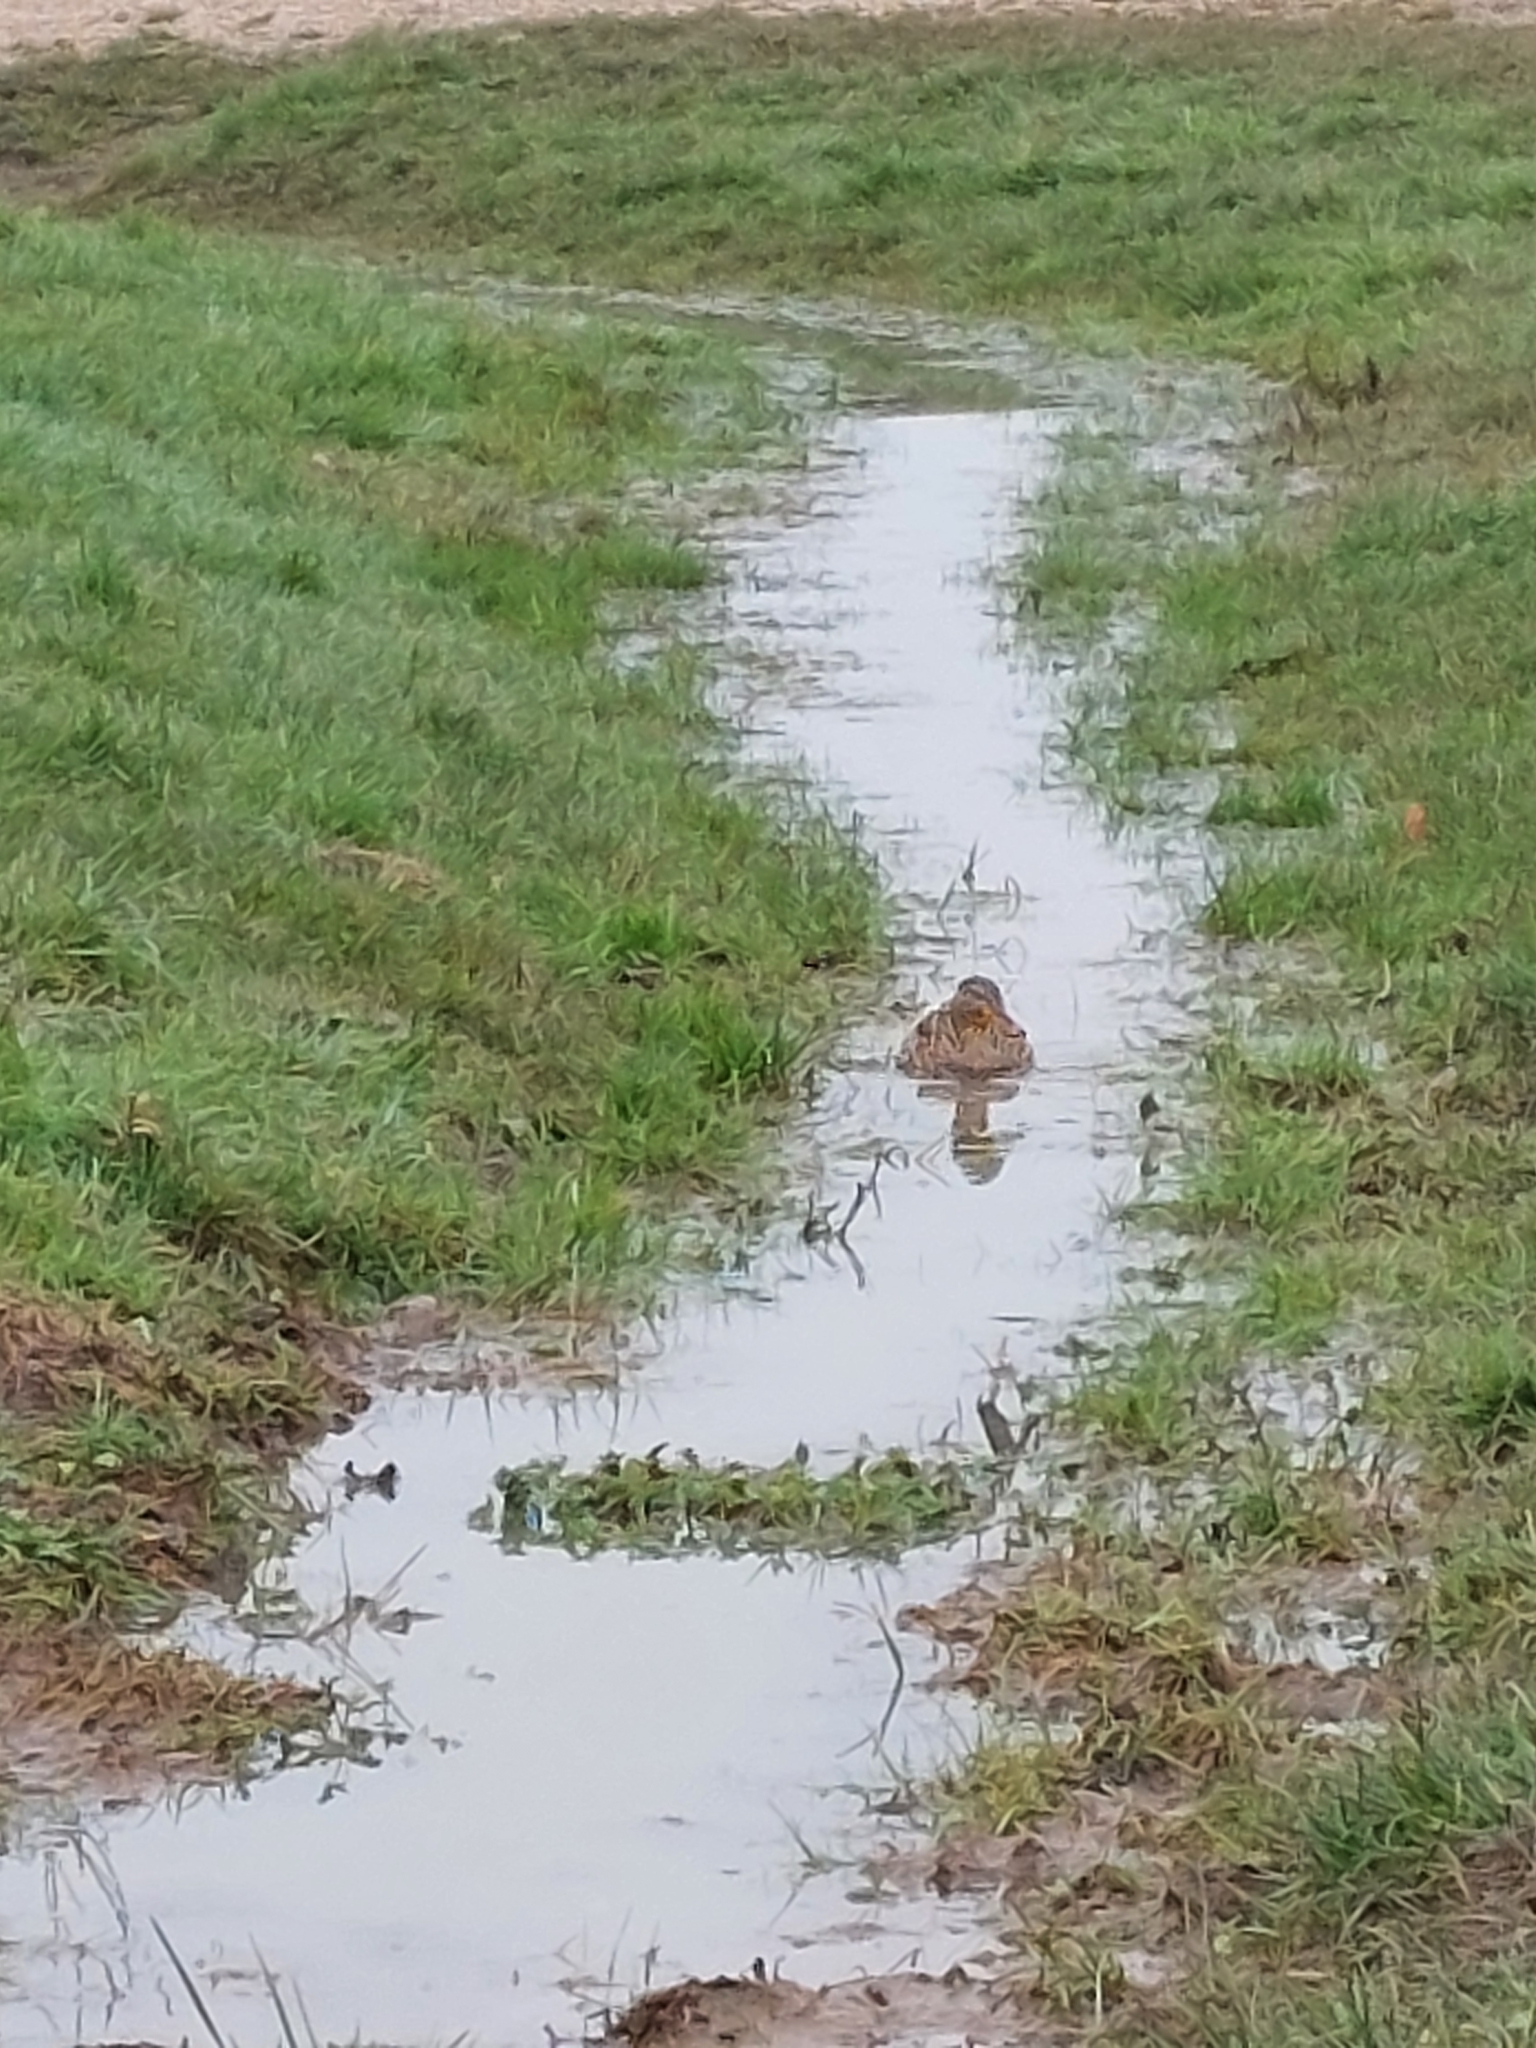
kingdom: Animalia
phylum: Chordata
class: Aves
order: Anseriformes
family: Anatidae
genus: Anas
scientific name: Anas platyrhynchos
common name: Mallard
